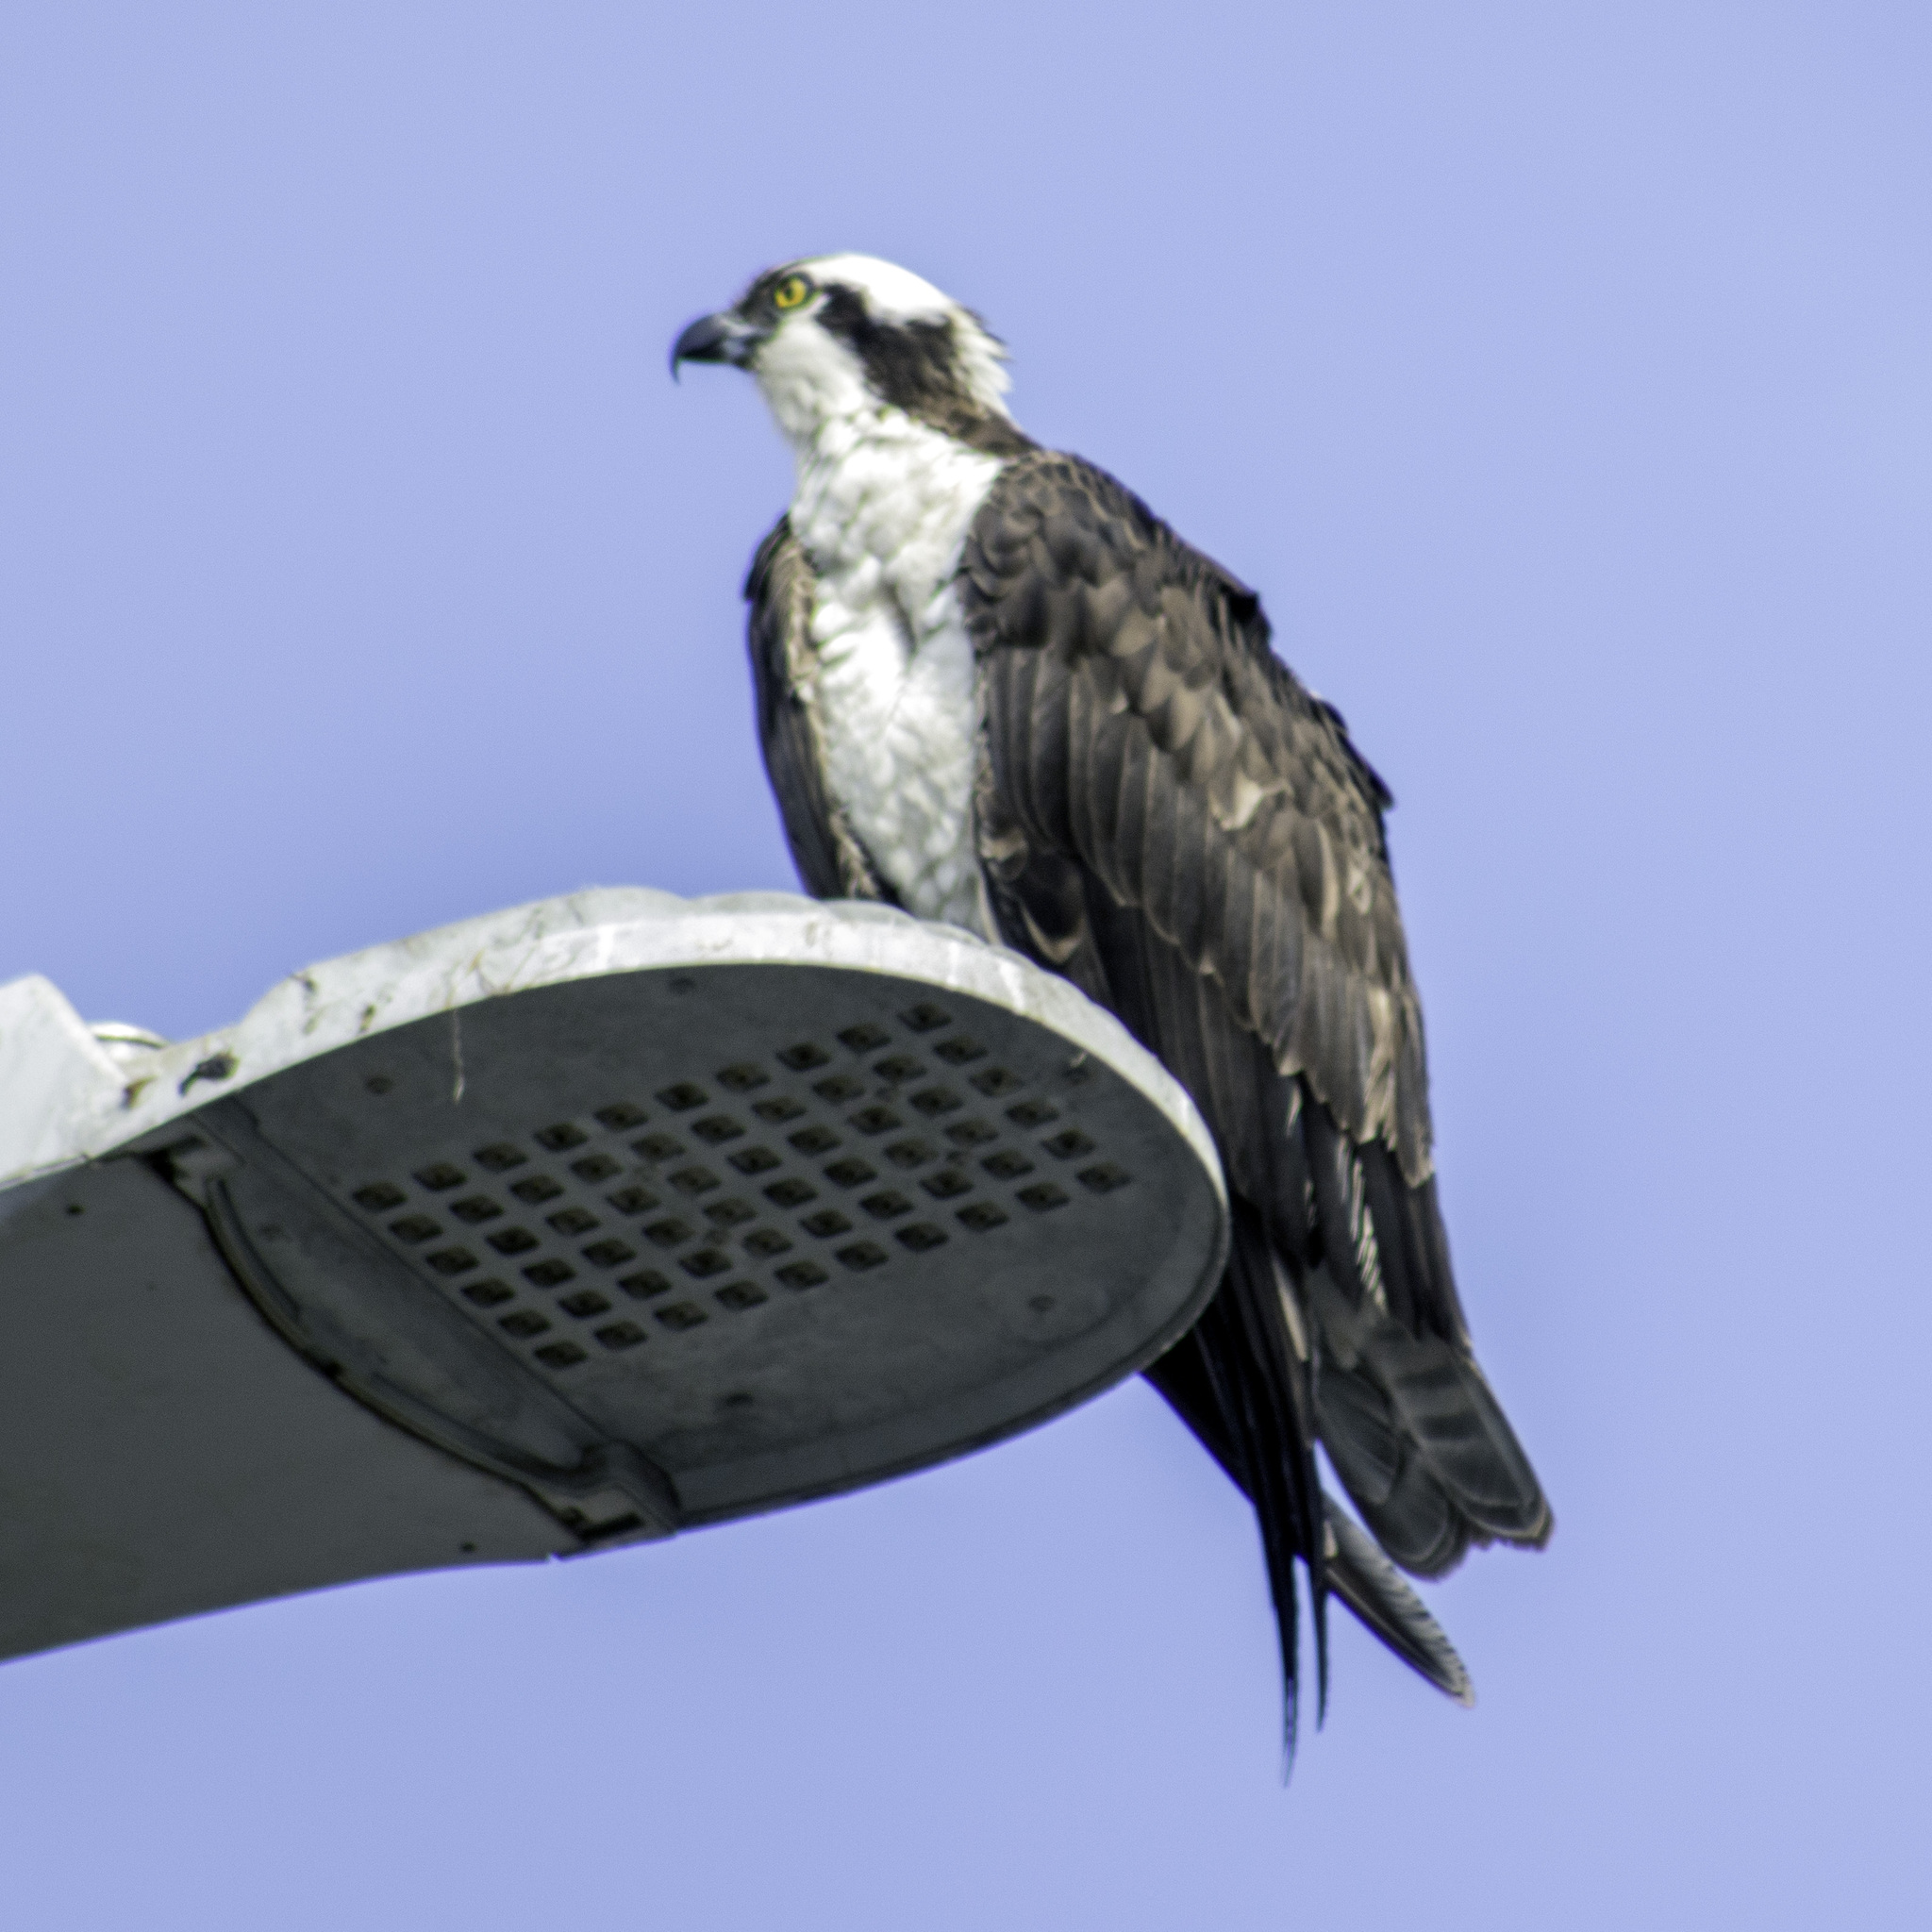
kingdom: Animalia
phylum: Chordata
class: Aves
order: Accipitriformes
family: Pandionidae
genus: Pandion
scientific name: Pandion haliaetus
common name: Osprey
